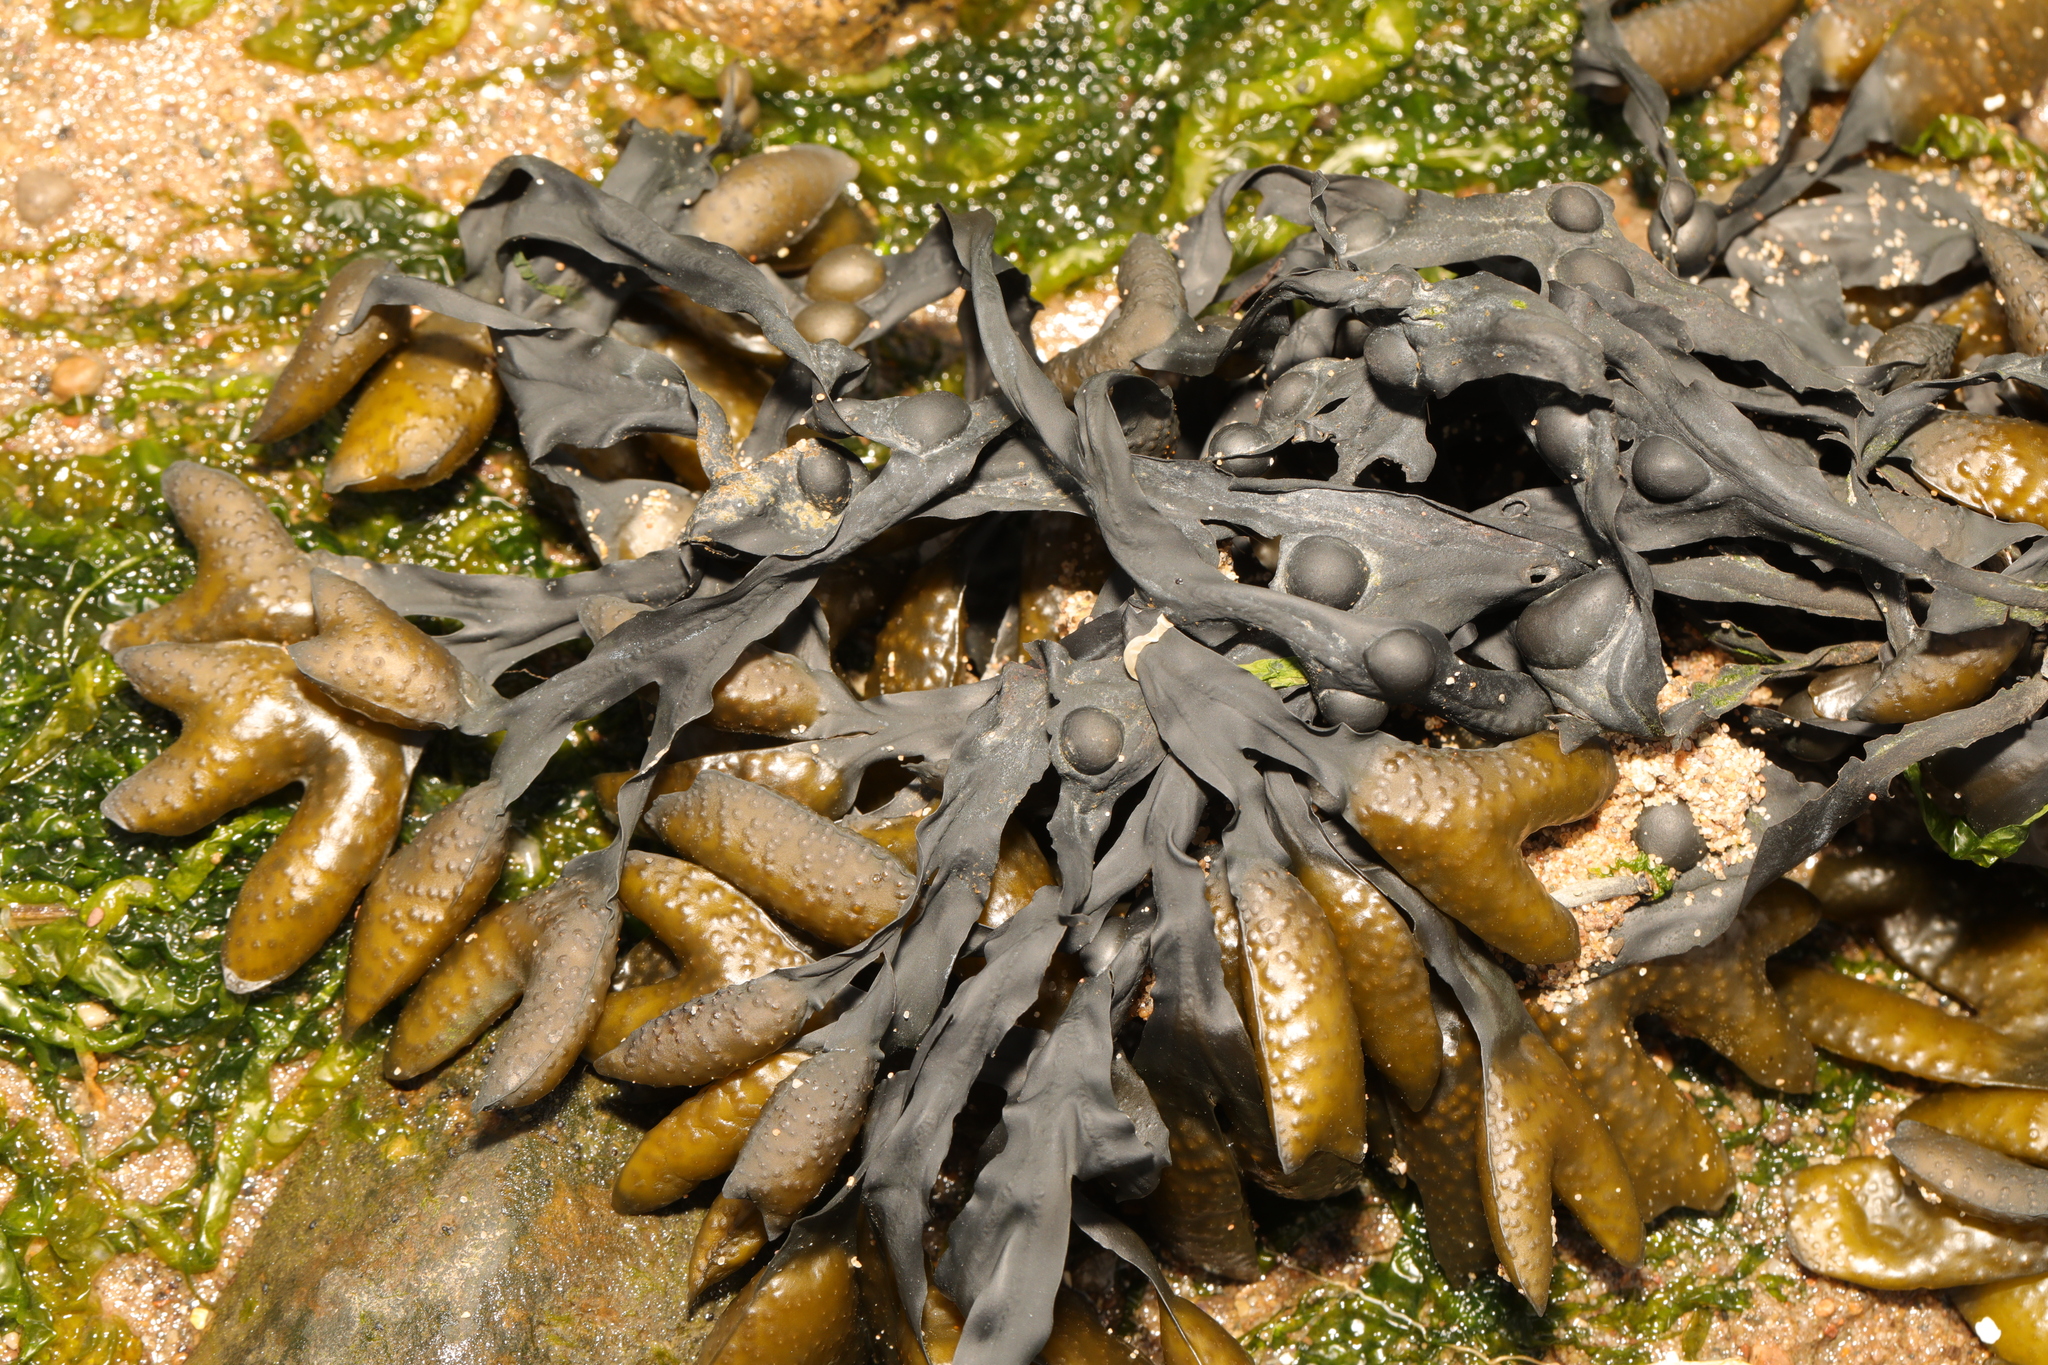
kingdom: Chromista
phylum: Ochrophyta
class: Phaeophyceae
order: Fucales
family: Fucaceae
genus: Fucus
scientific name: Fucus vesiculosus
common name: Bladder wrack
